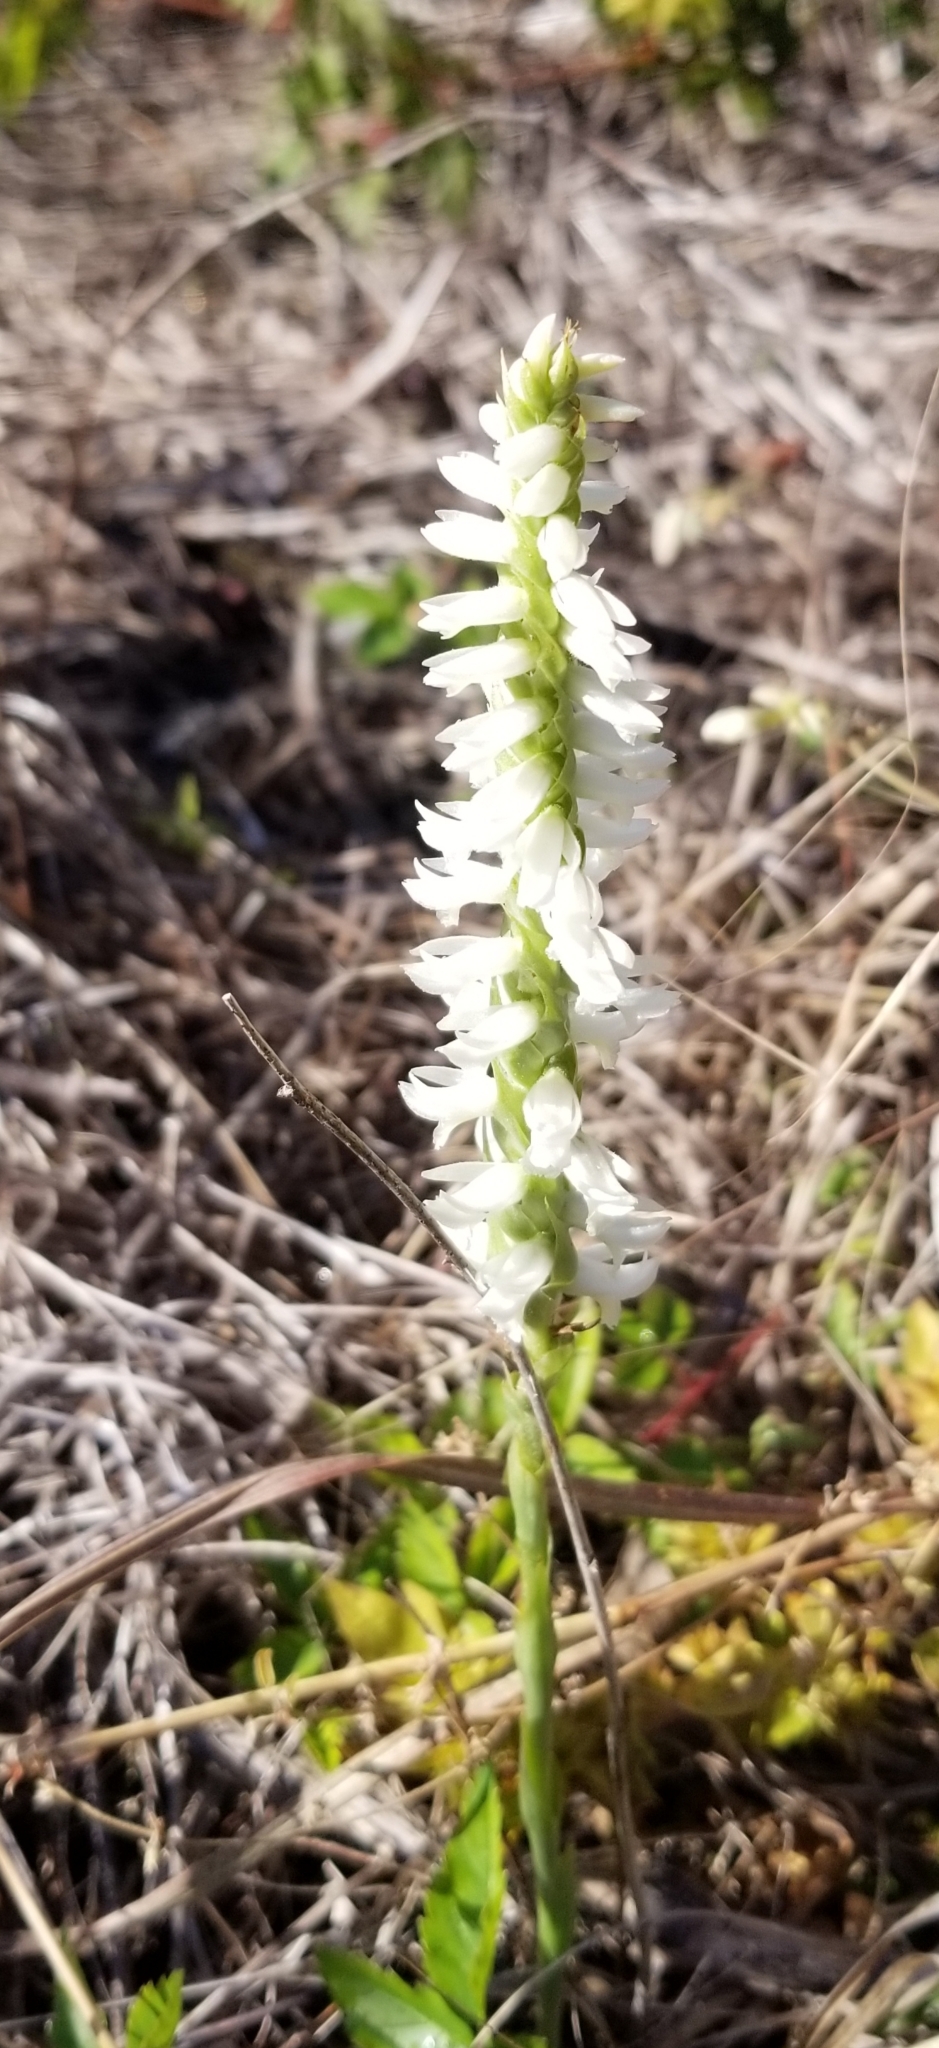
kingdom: Plantae
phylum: Tracheophyta
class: Liliopsida
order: Asparagales
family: Orchidaceae
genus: Spiranthes
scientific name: Spiranthes magnicamporum
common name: Great plains ladies'-tresses
